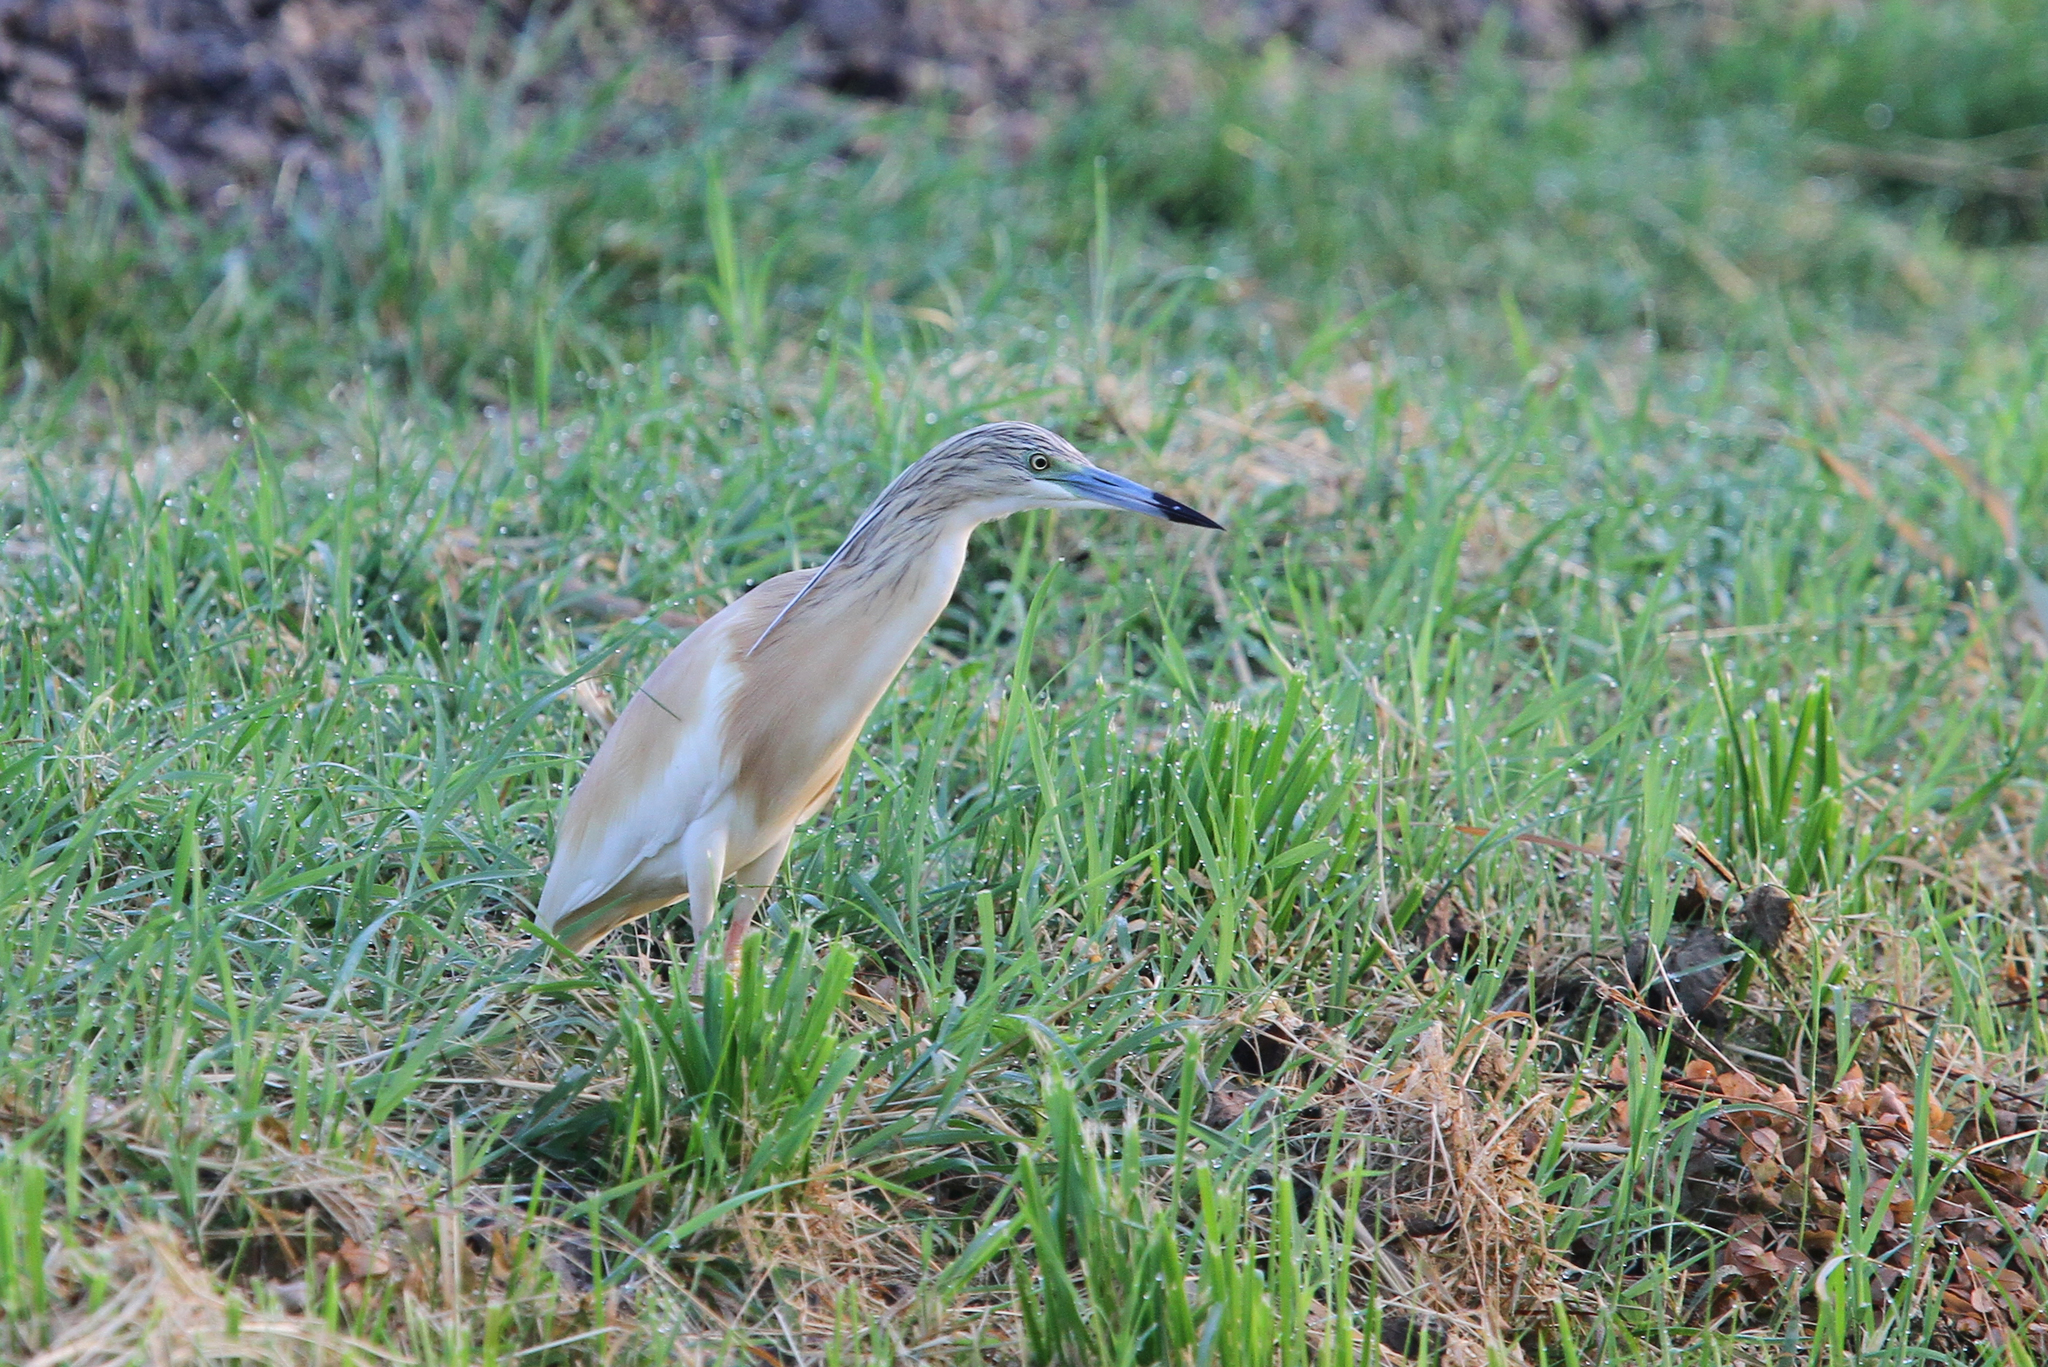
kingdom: Animalia
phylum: Chordata
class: Aves
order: Pelecaniformes
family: Ardeidae
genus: Ardeola
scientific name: Ardeola ralloides
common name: Squacco heron
